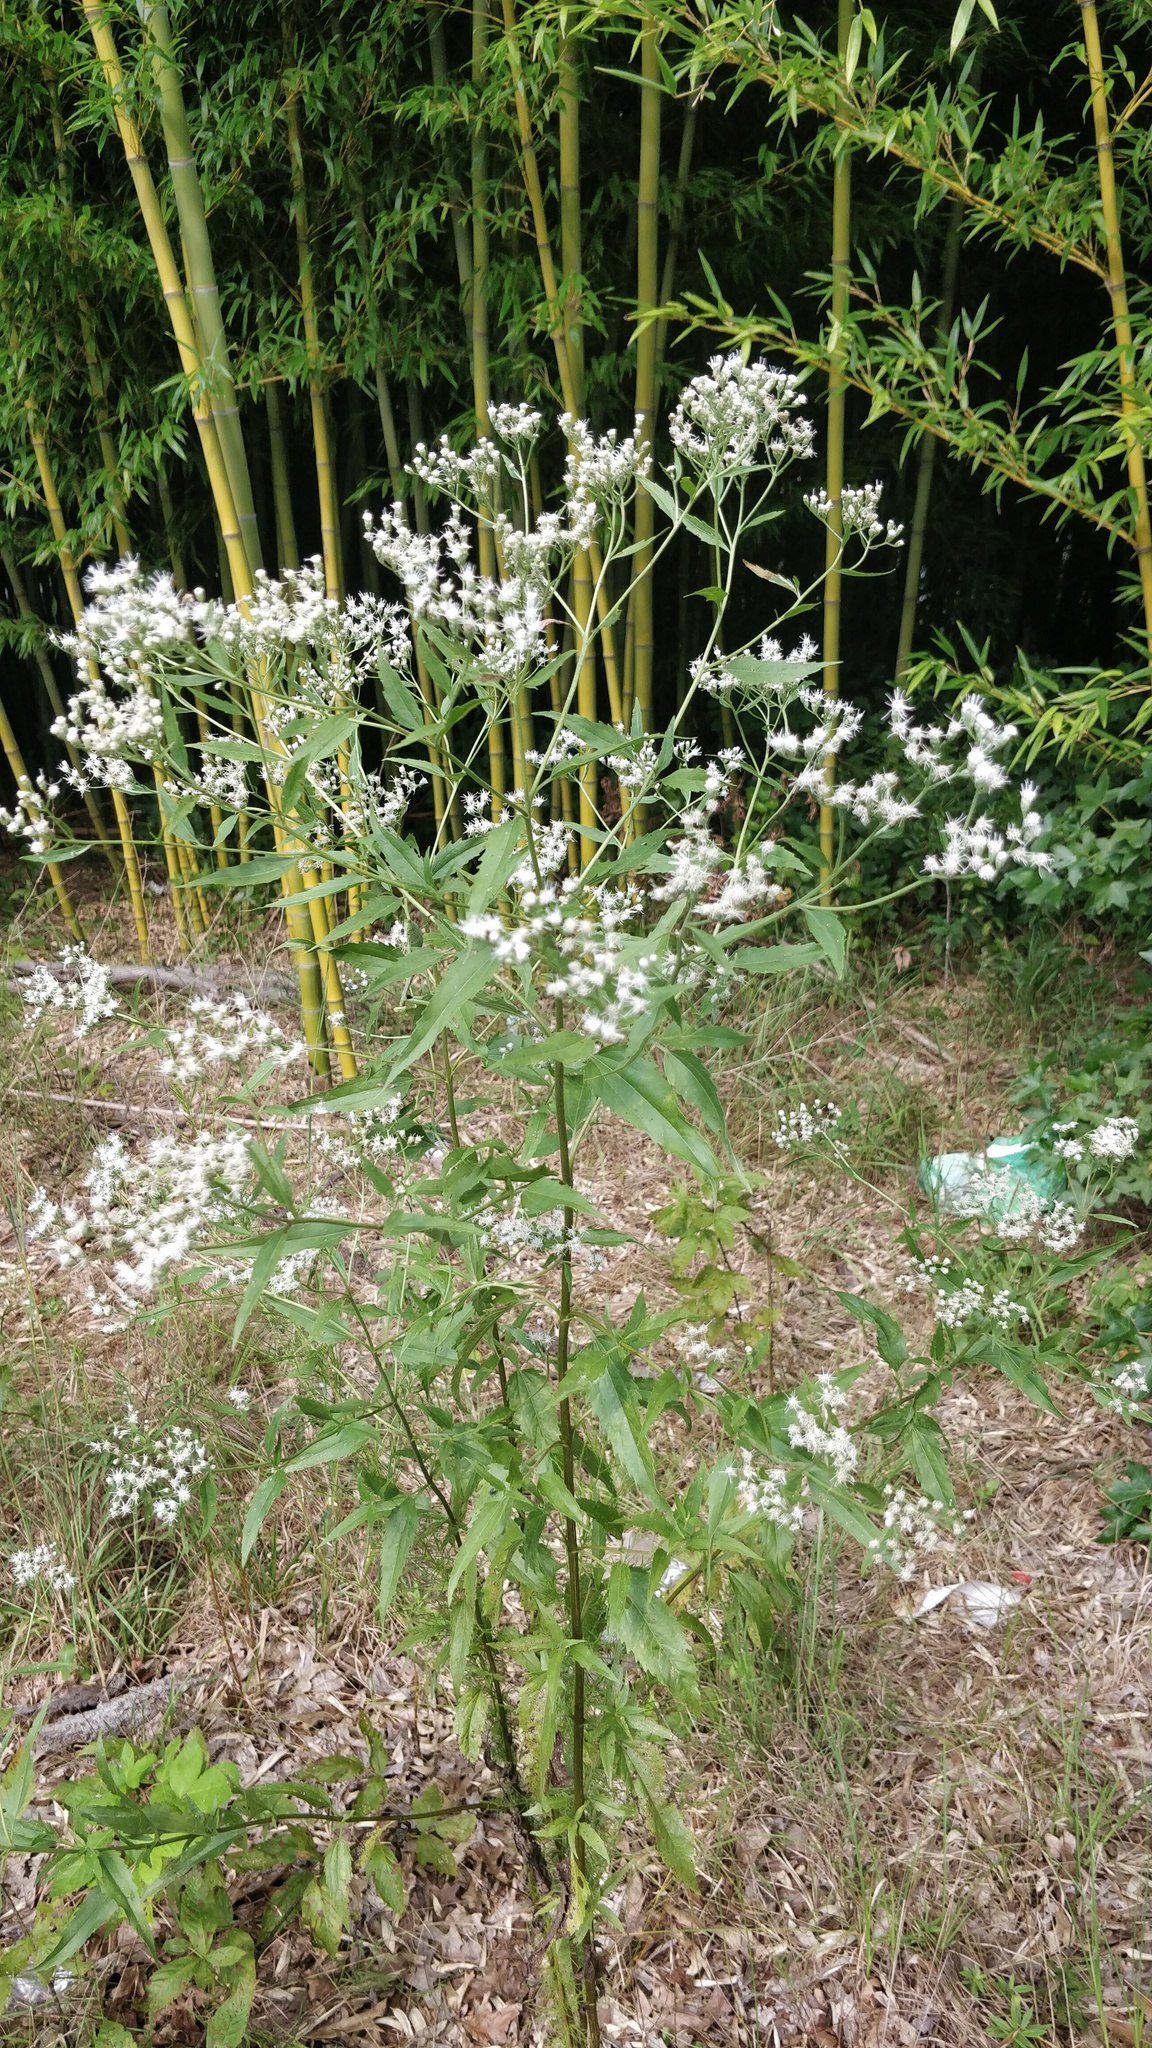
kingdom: Plantae
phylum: Tracheophyta
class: Magnoliopsida
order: Asterales
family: Asteraceae
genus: Eupatorium
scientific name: Eupatorium serotinum
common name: Late boneset
